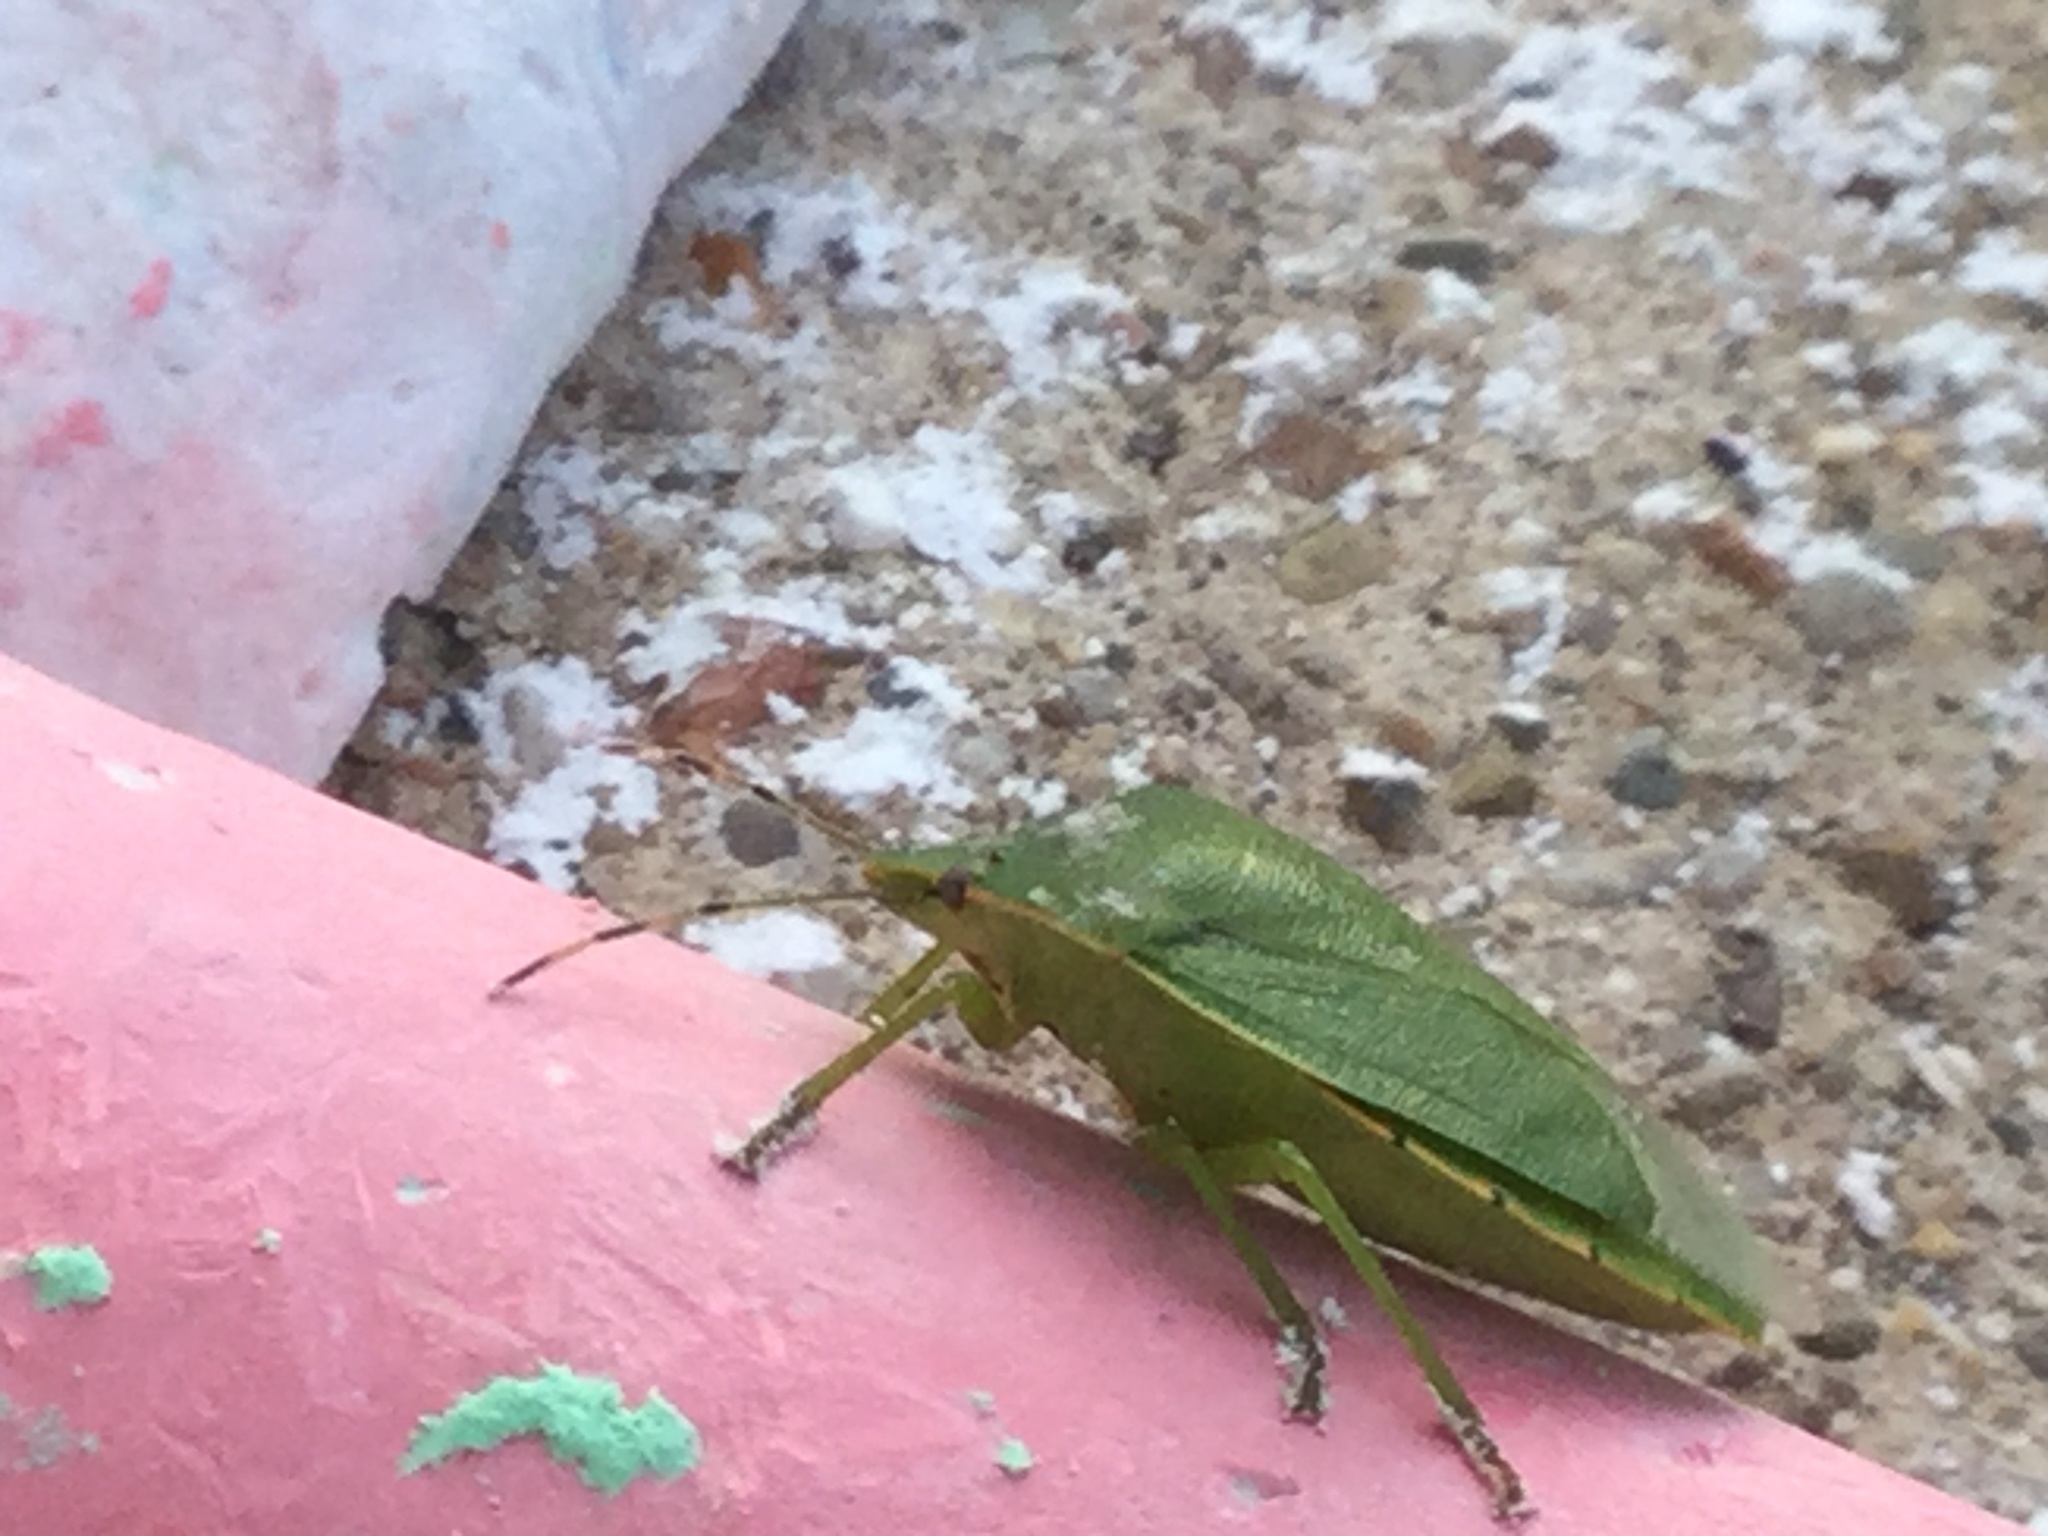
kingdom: Animalia
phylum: Arthropoda
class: Insecta
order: Hemiptera
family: Pentatomidae
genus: Chinavia
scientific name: Chinavia hilaris
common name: Green stink bug
